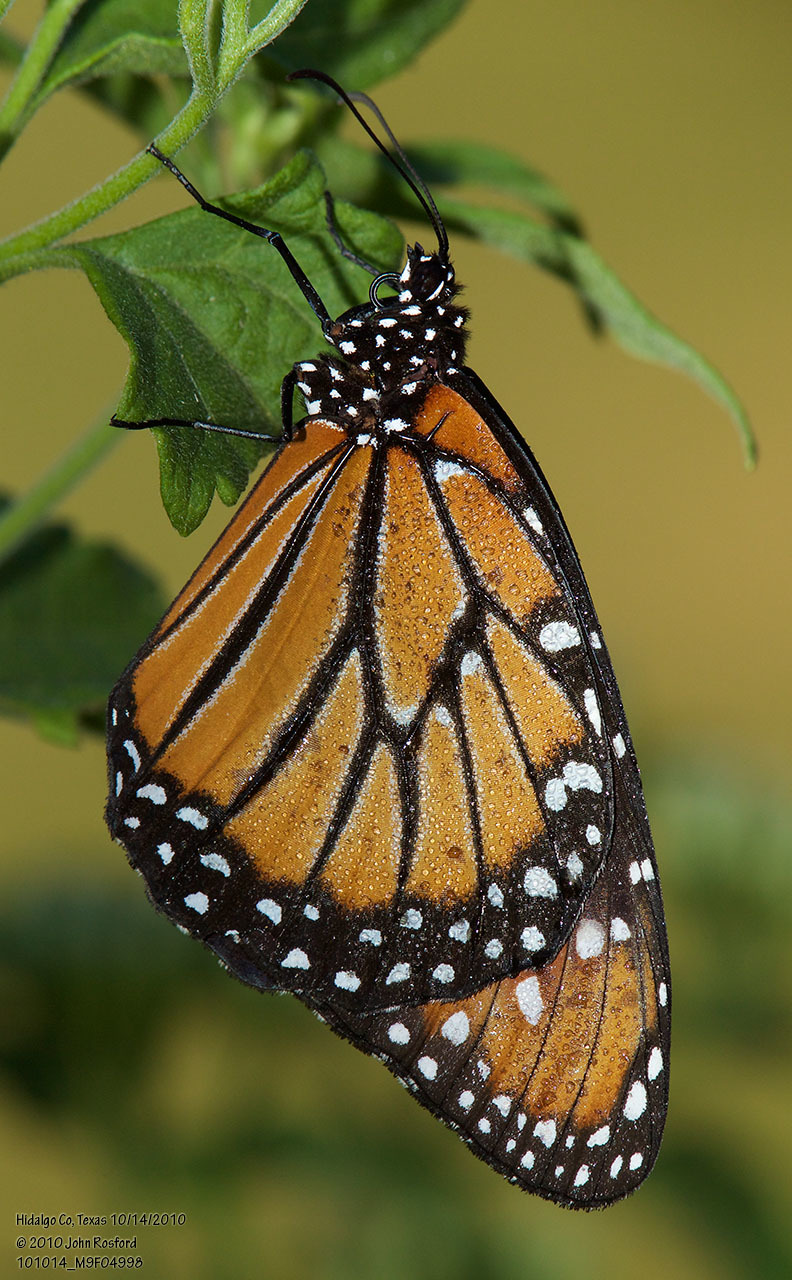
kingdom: Animalia
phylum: Arthropoda
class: Insecta
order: Lepidoptera
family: Nymphalidae
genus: Danaus
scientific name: Danaus gilippus
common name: Queen
